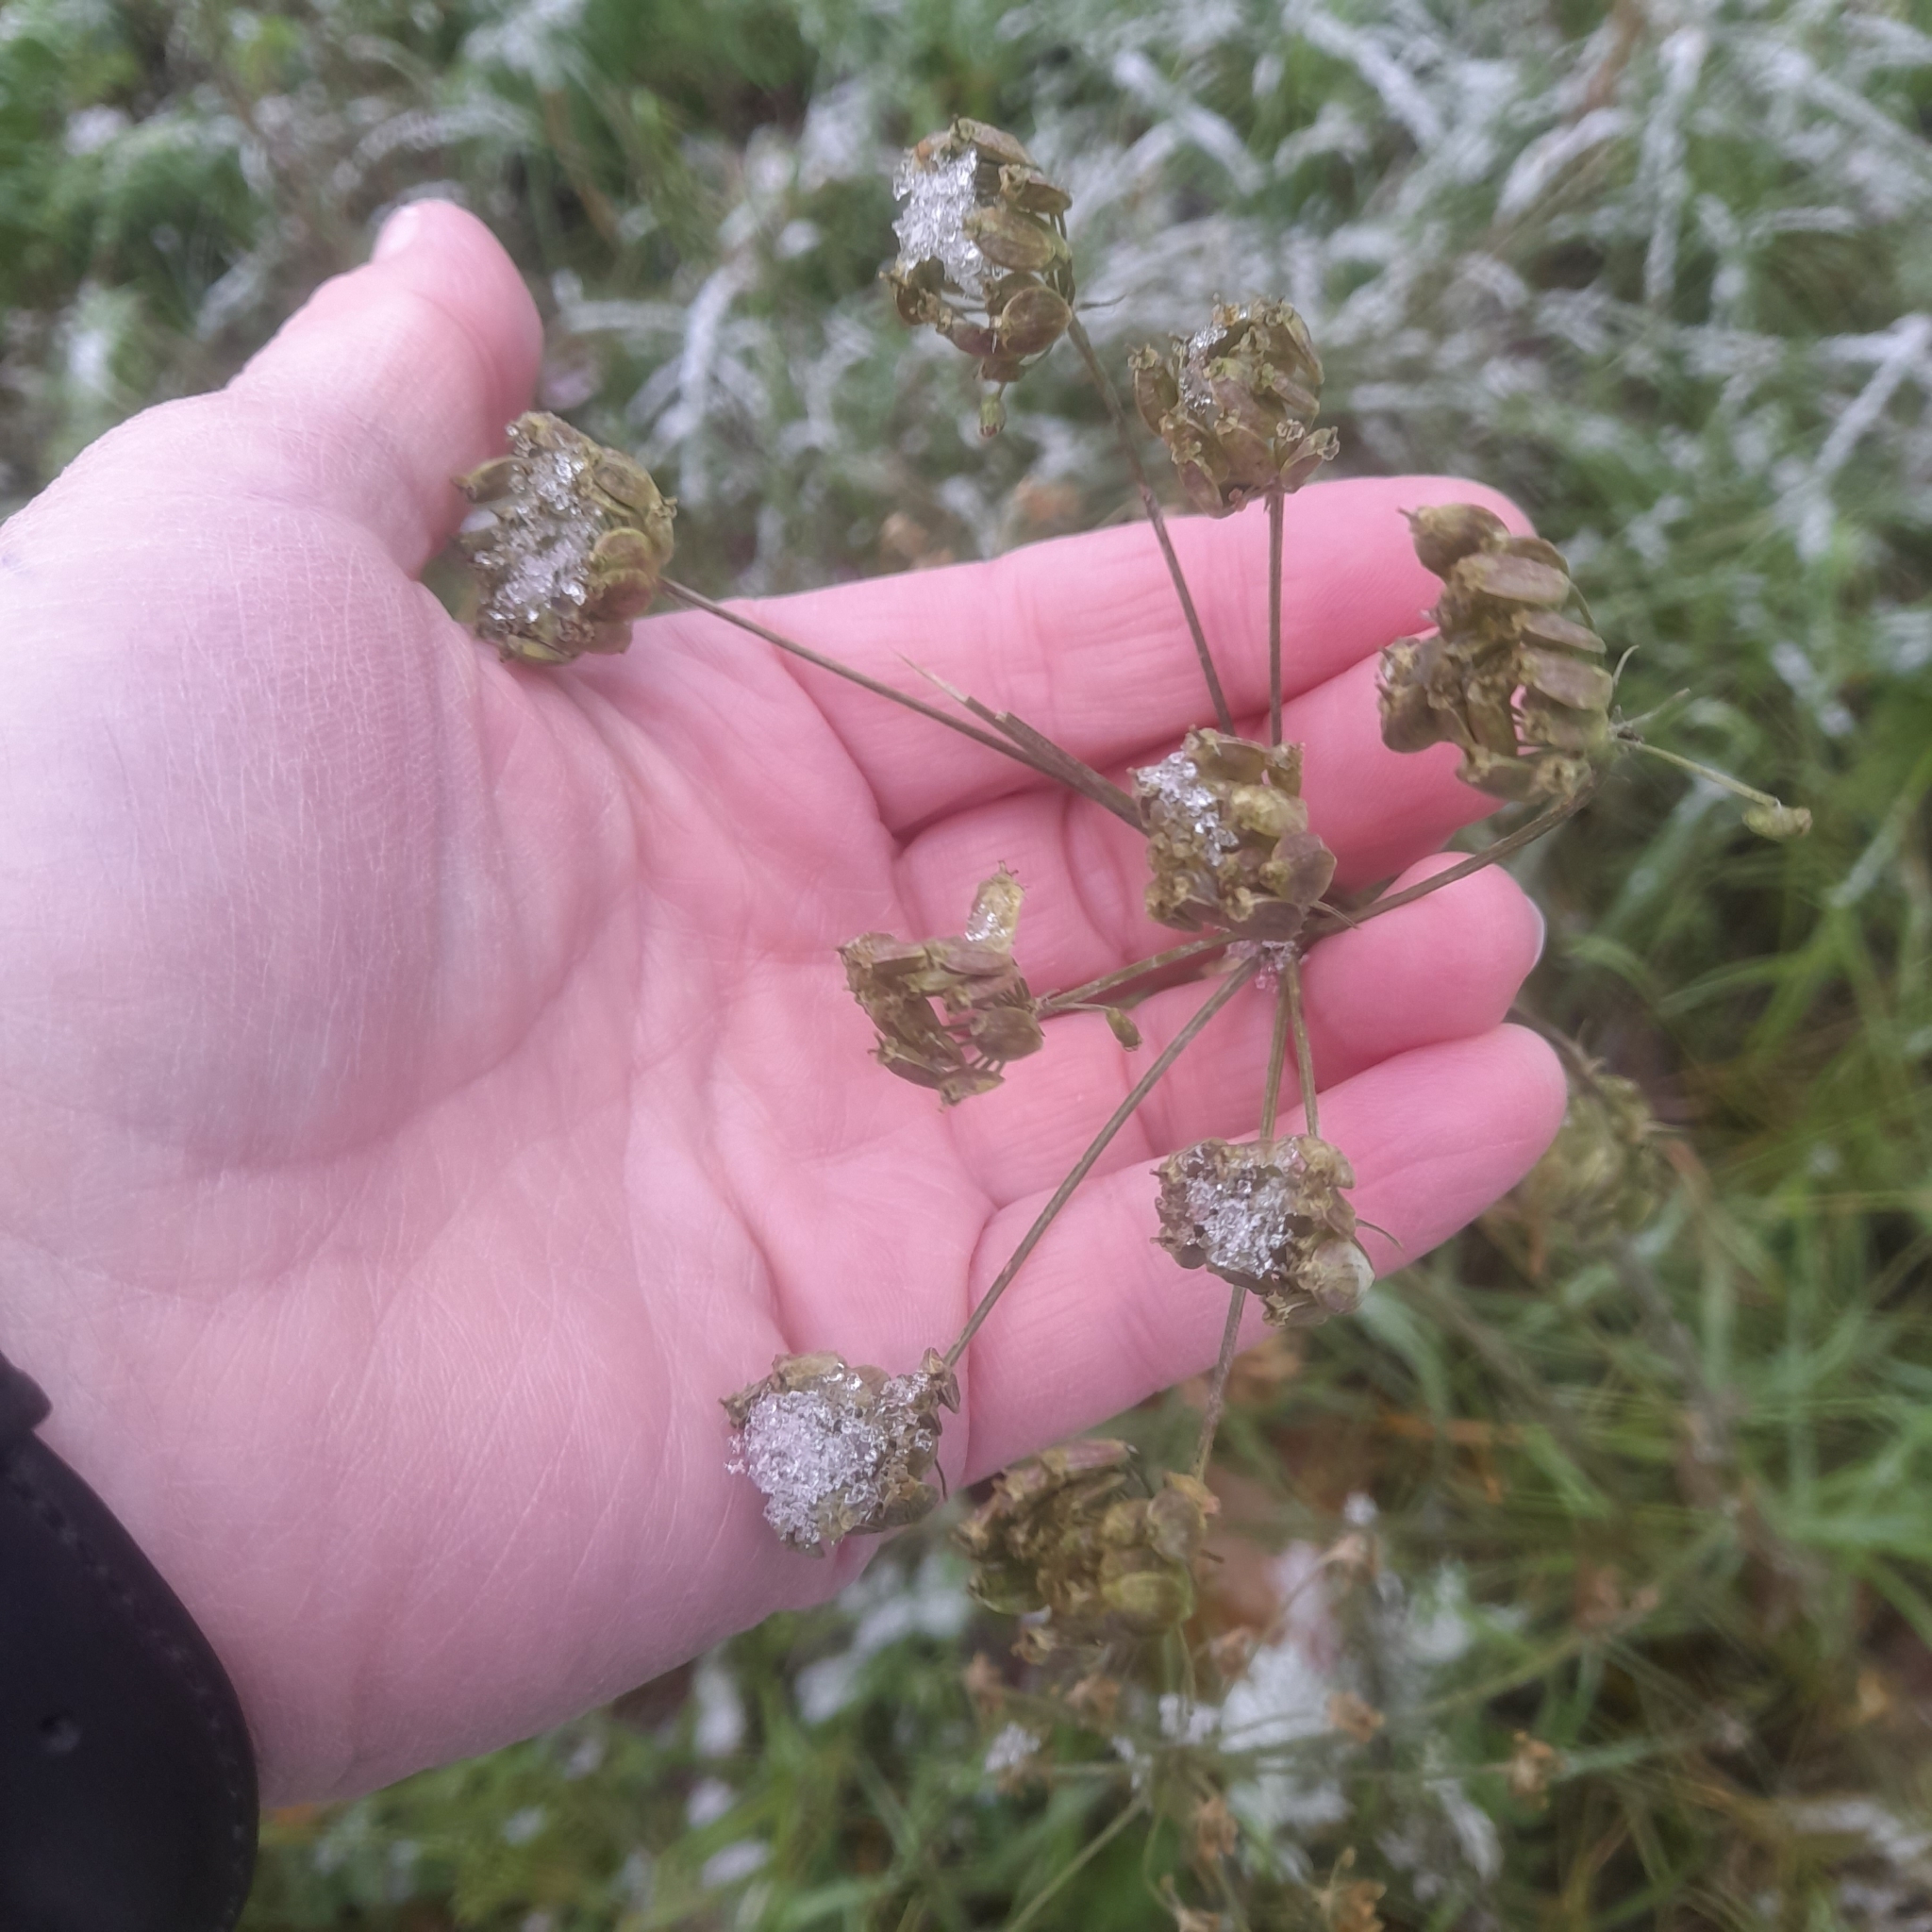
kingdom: Plantae
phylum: Tracheophyta
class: Magnoliopsida
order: Apiales
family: Apiaceae
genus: Heracleum
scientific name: Heracleum sphondylium
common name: Hogweed
